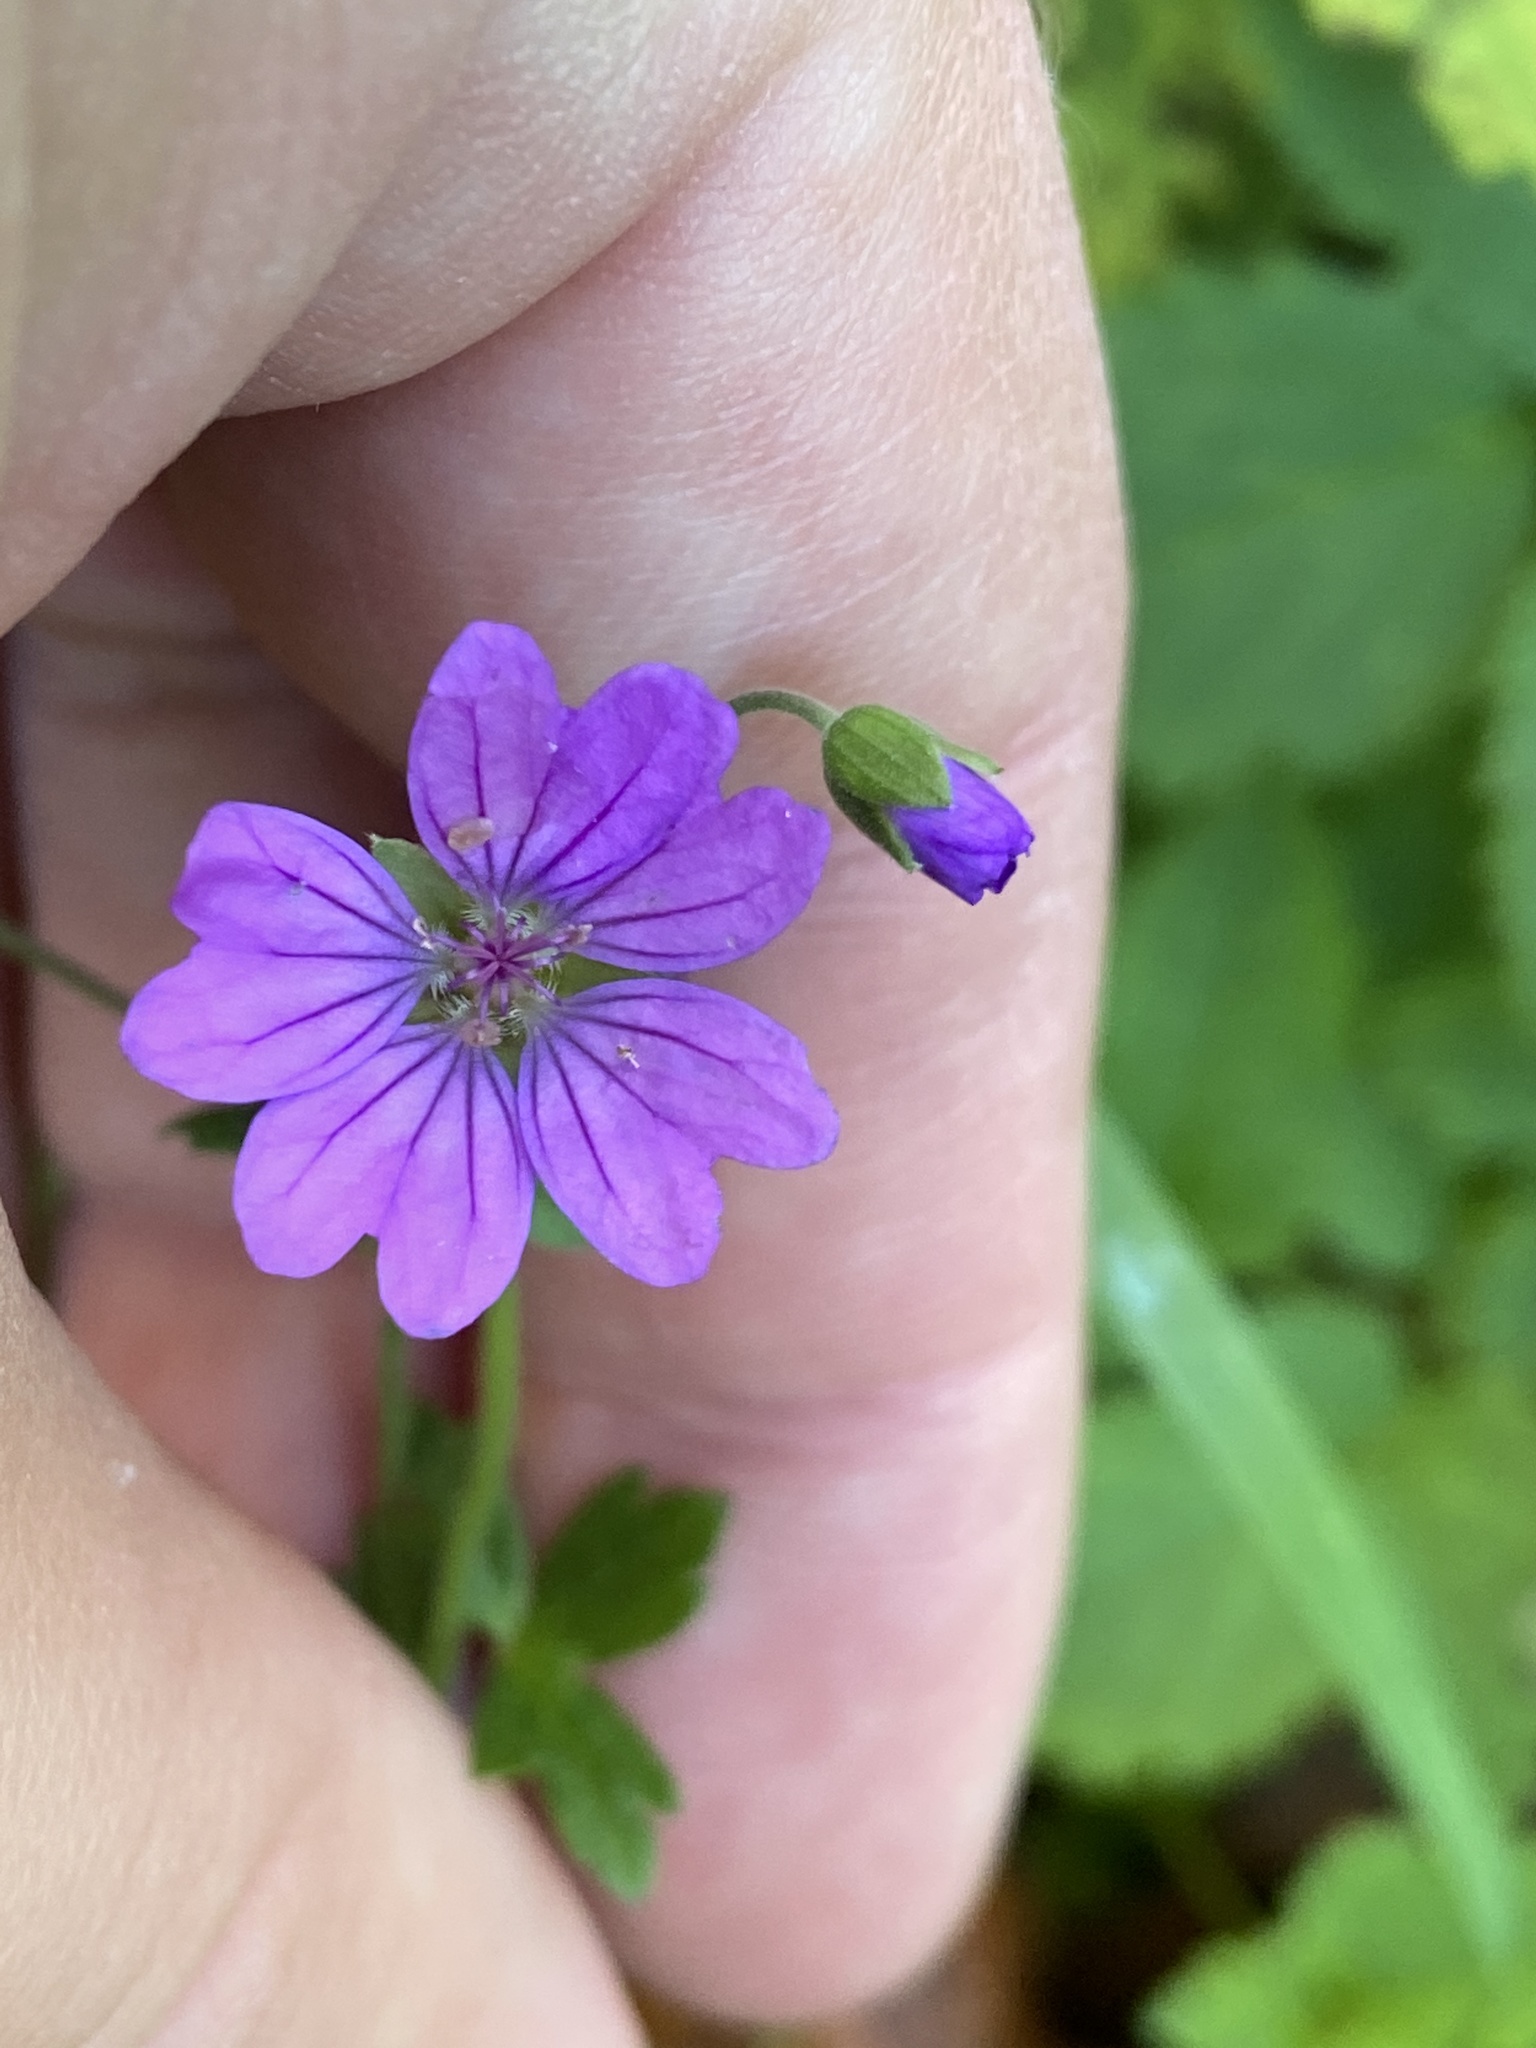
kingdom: Plantae
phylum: Tracheophyta
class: Magnoliopsida
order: Geraniales
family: Geraniaceae
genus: Geranium
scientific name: Geranium pyrenaicum
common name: Hedgerow crane's-bill
